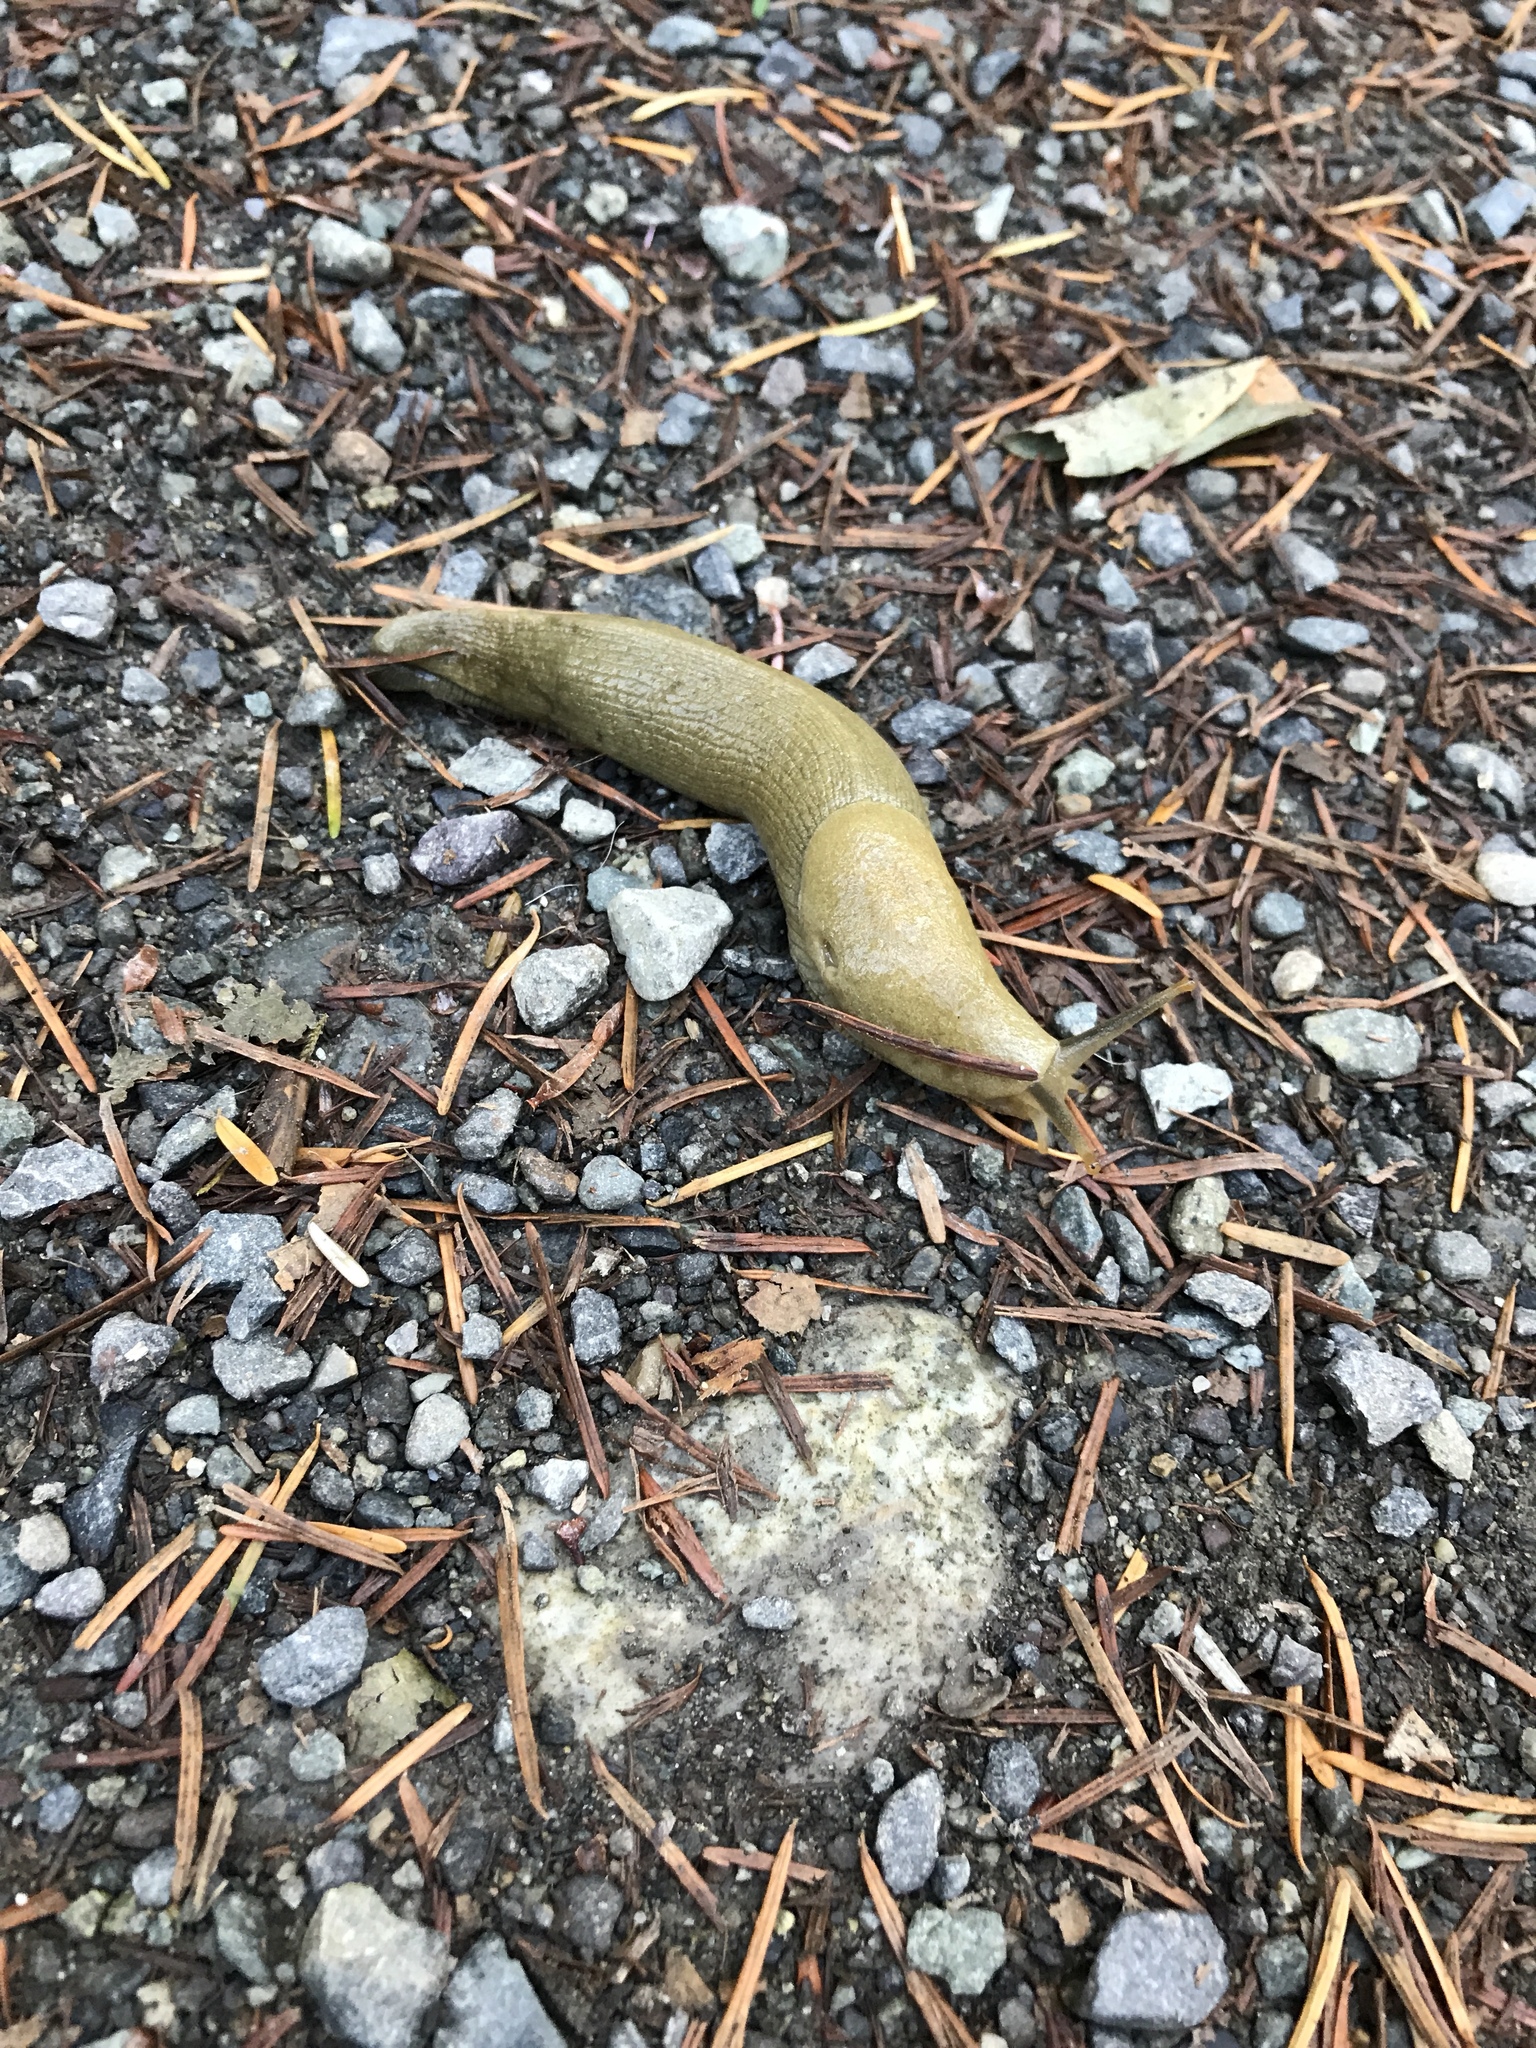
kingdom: Animalia
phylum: Mollusca
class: Gastropoda
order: Stylommatophora
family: Ariolimacidae
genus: Ariolimax
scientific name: Ariolimax columbianus
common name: Pacific banana slug
